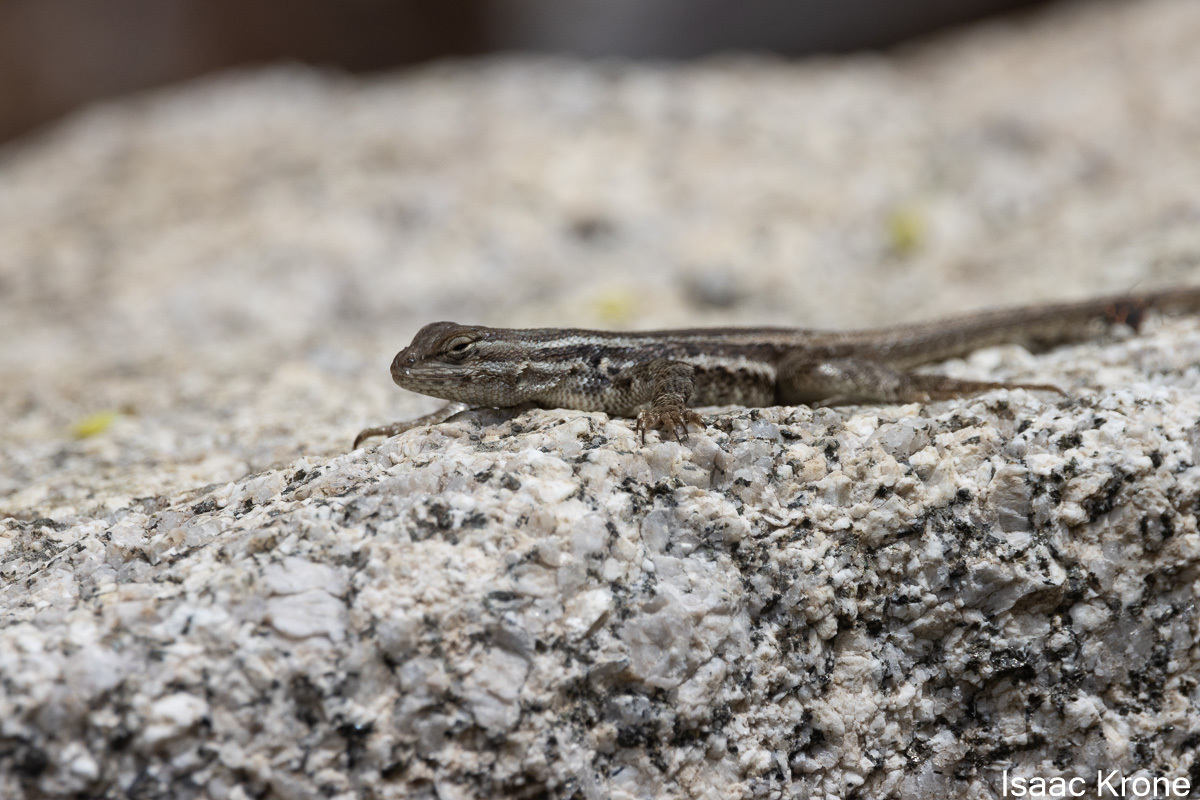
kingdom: Animalia
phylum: Chordata
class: Squamata
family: Phrynosomatidae
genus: Sceloporus
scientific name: Sceloporus graciosus
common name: Sagebrush lizard
